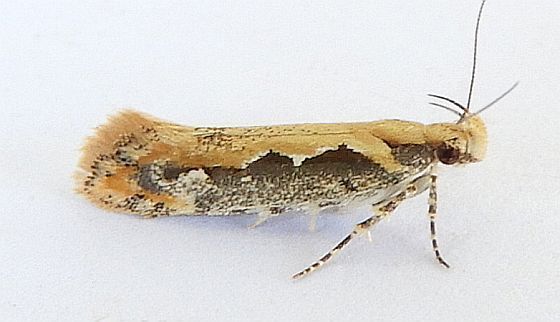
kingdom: Animalia
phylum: Arthropoda
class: Insecta
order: Lepidoptera
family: Gelechiidae
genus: Ornativalva
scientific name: Ornativalva erubescens
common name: Moth
